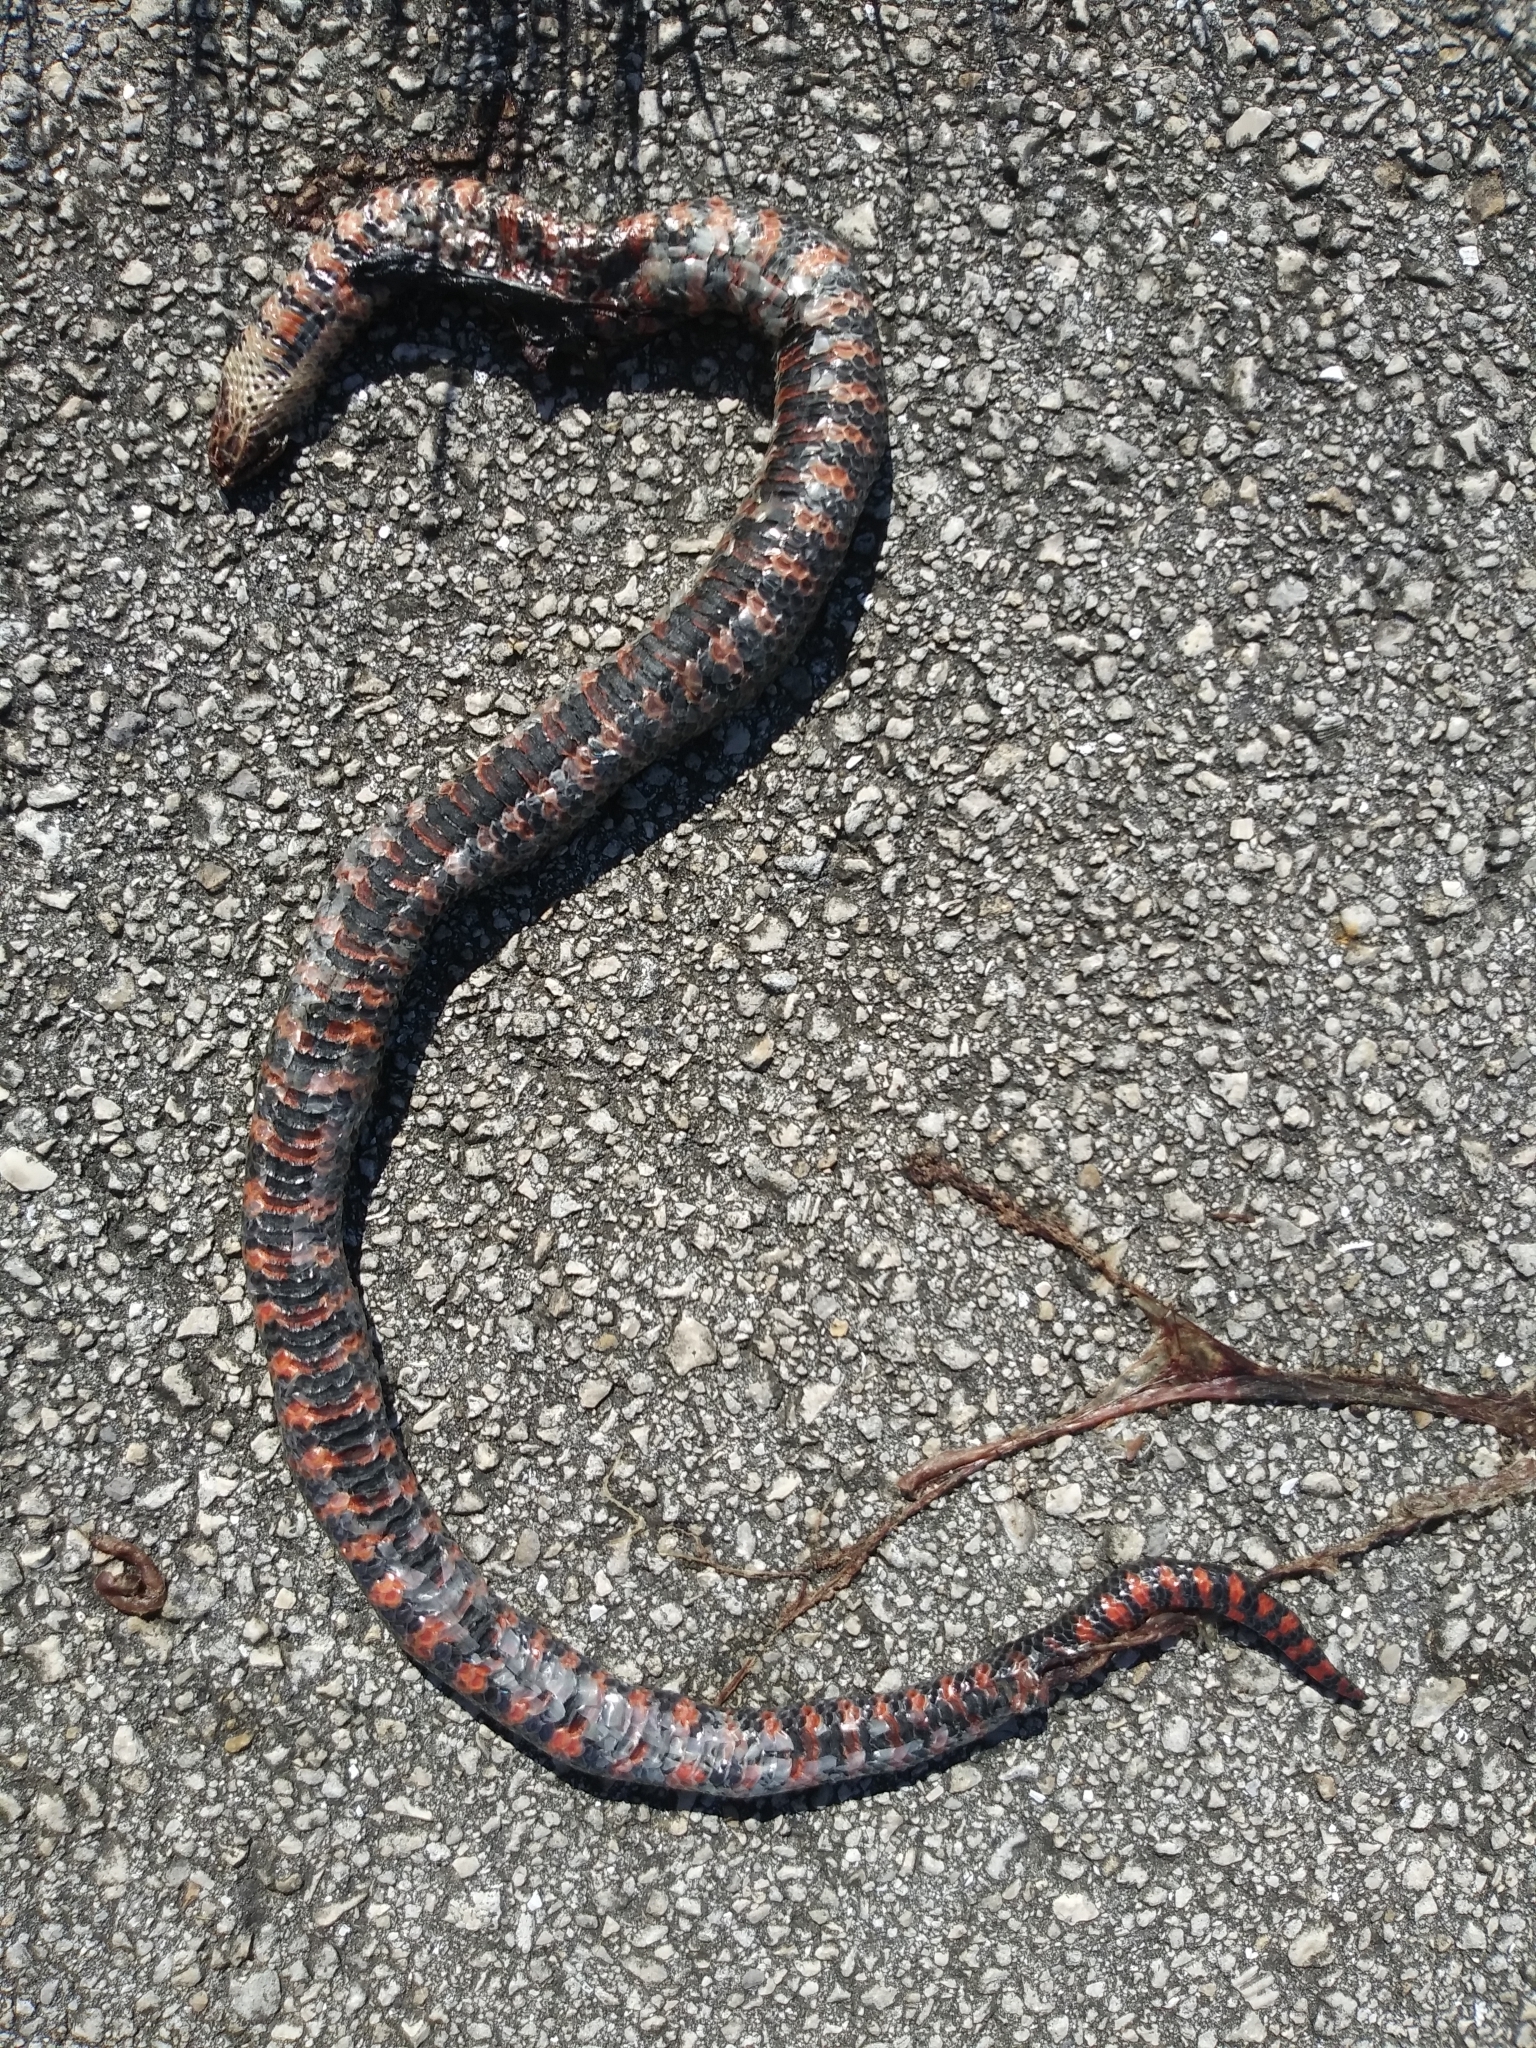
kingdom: Animalia
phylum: Chordata
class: Squamata
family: Colubridae
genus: Farancia
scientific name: Farancia abacura
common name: Mud snake
